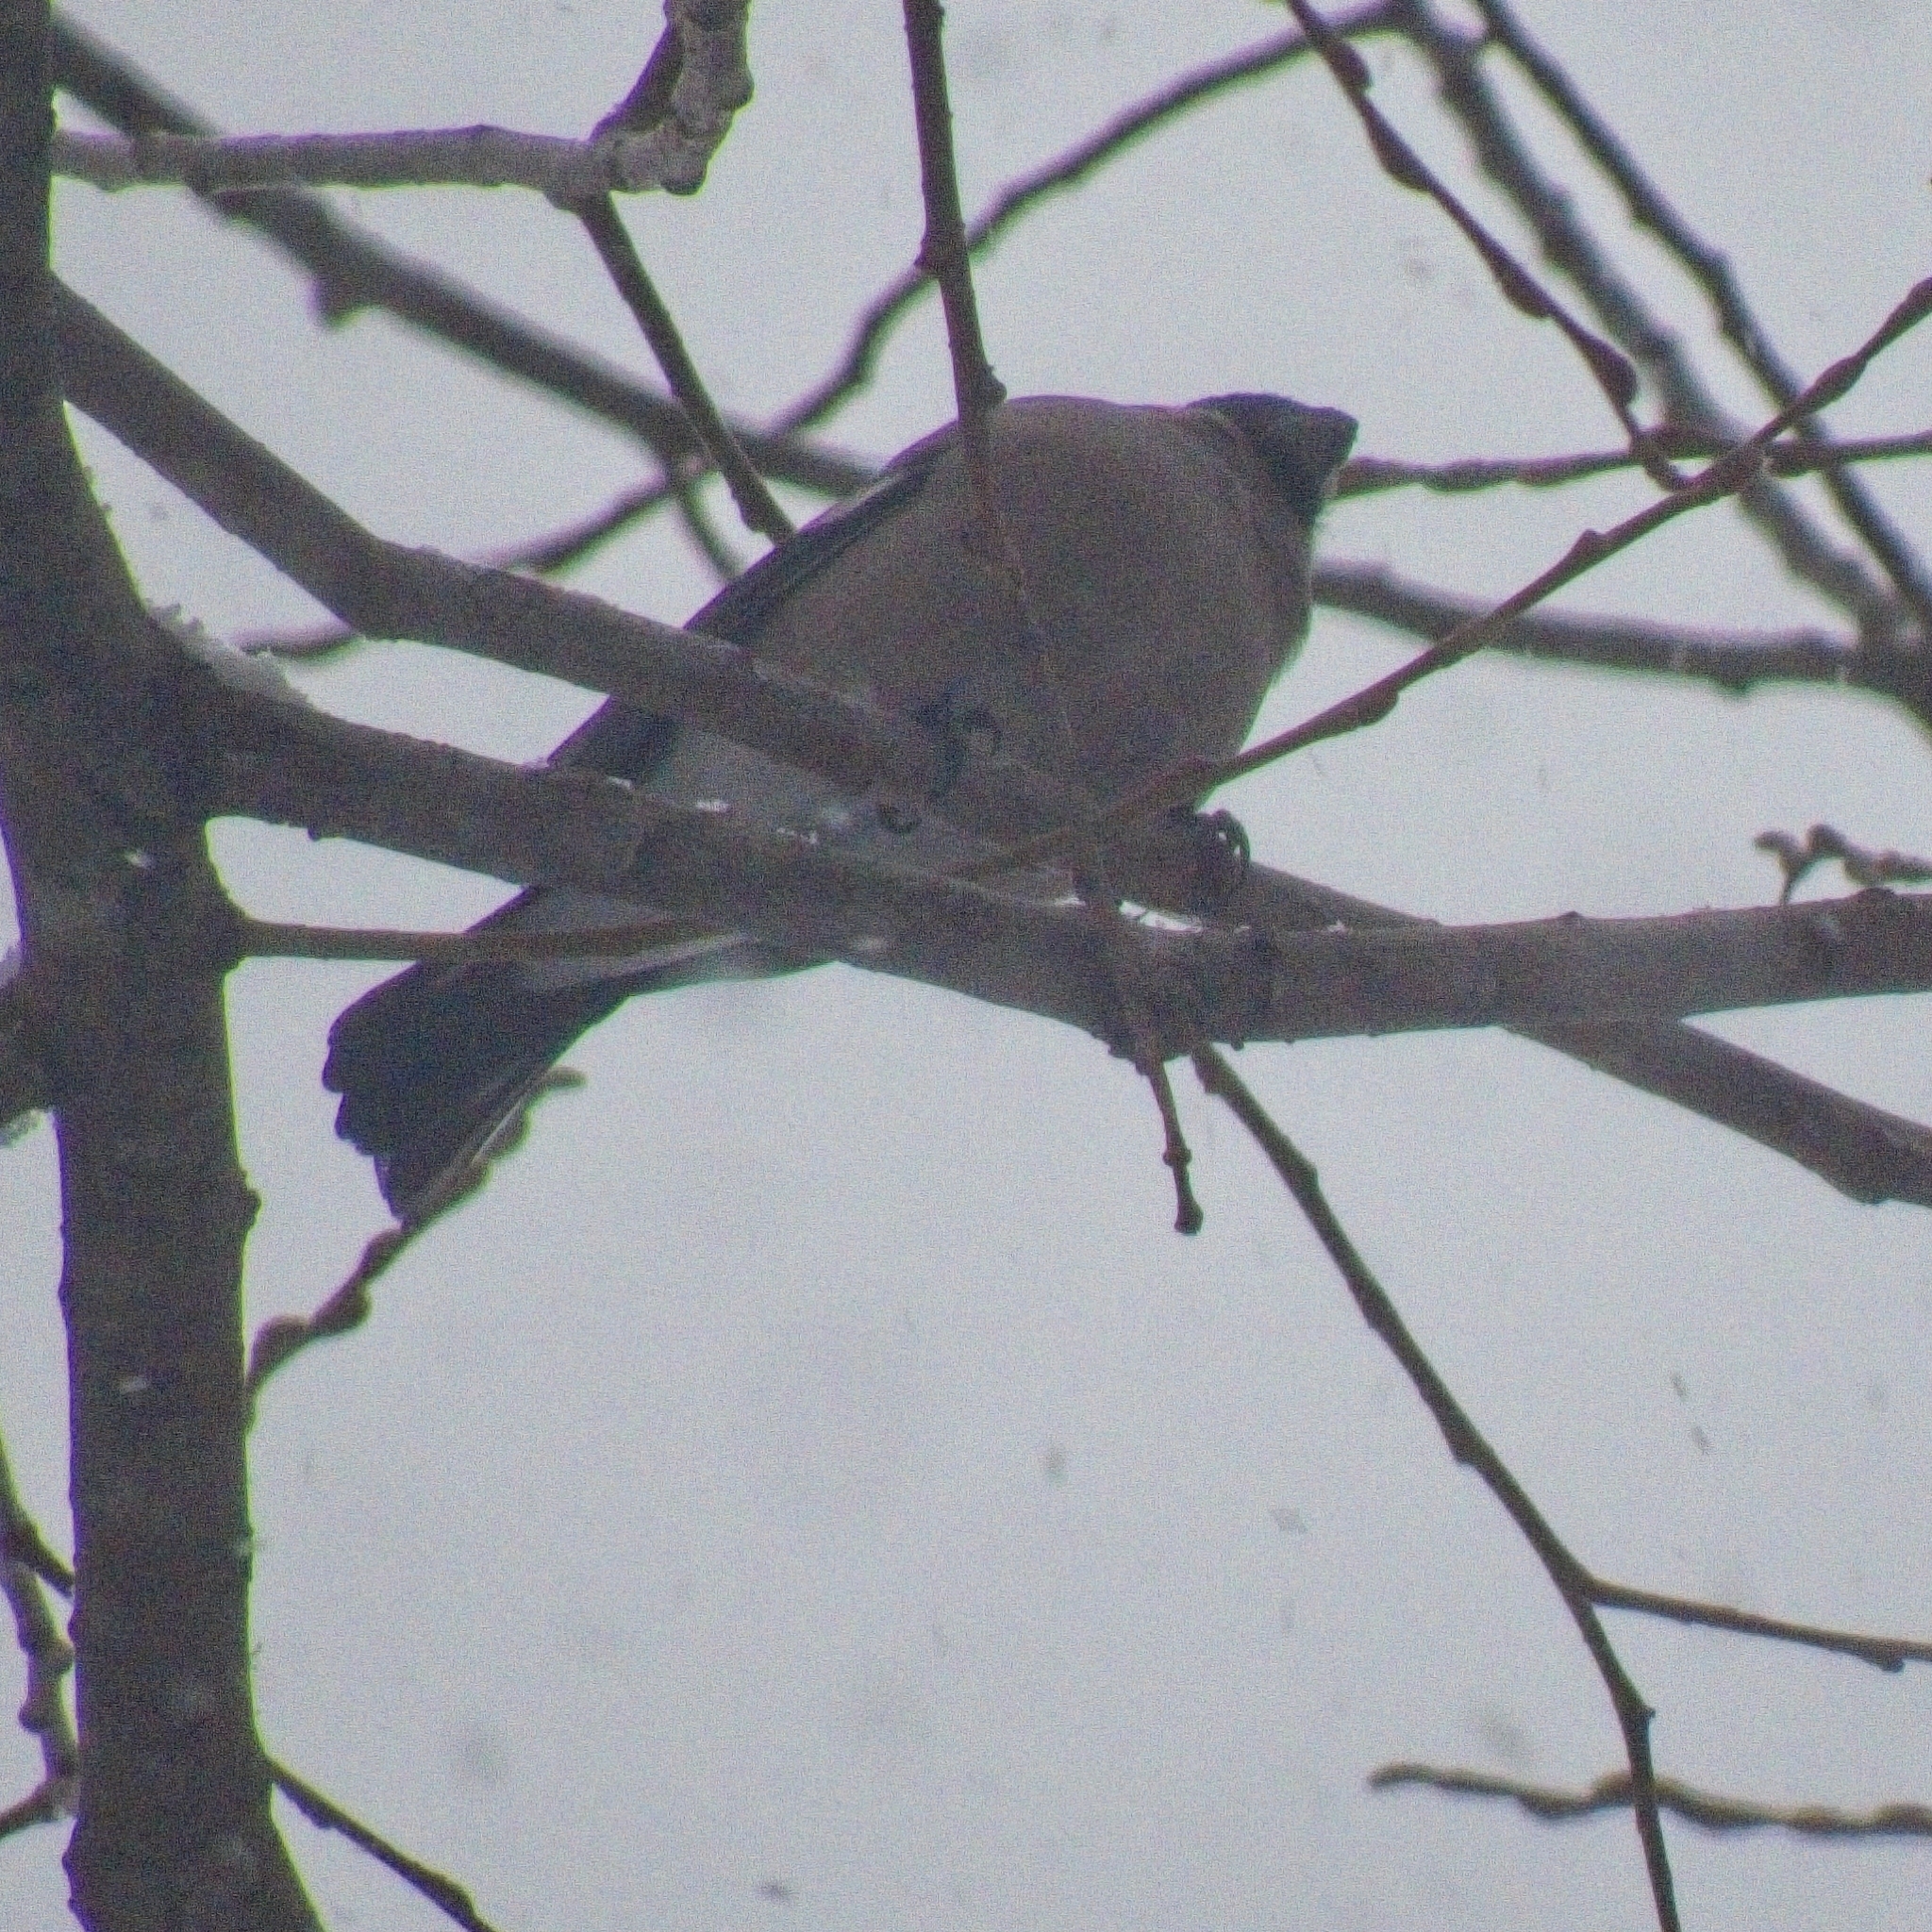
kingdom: Animalia
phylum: Chordata
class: Aves
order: Passeriformes
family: Fringillidae
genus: Pyrrhula
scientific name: Pyrrhula pyrrhula
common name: Eurasian bullfinch
